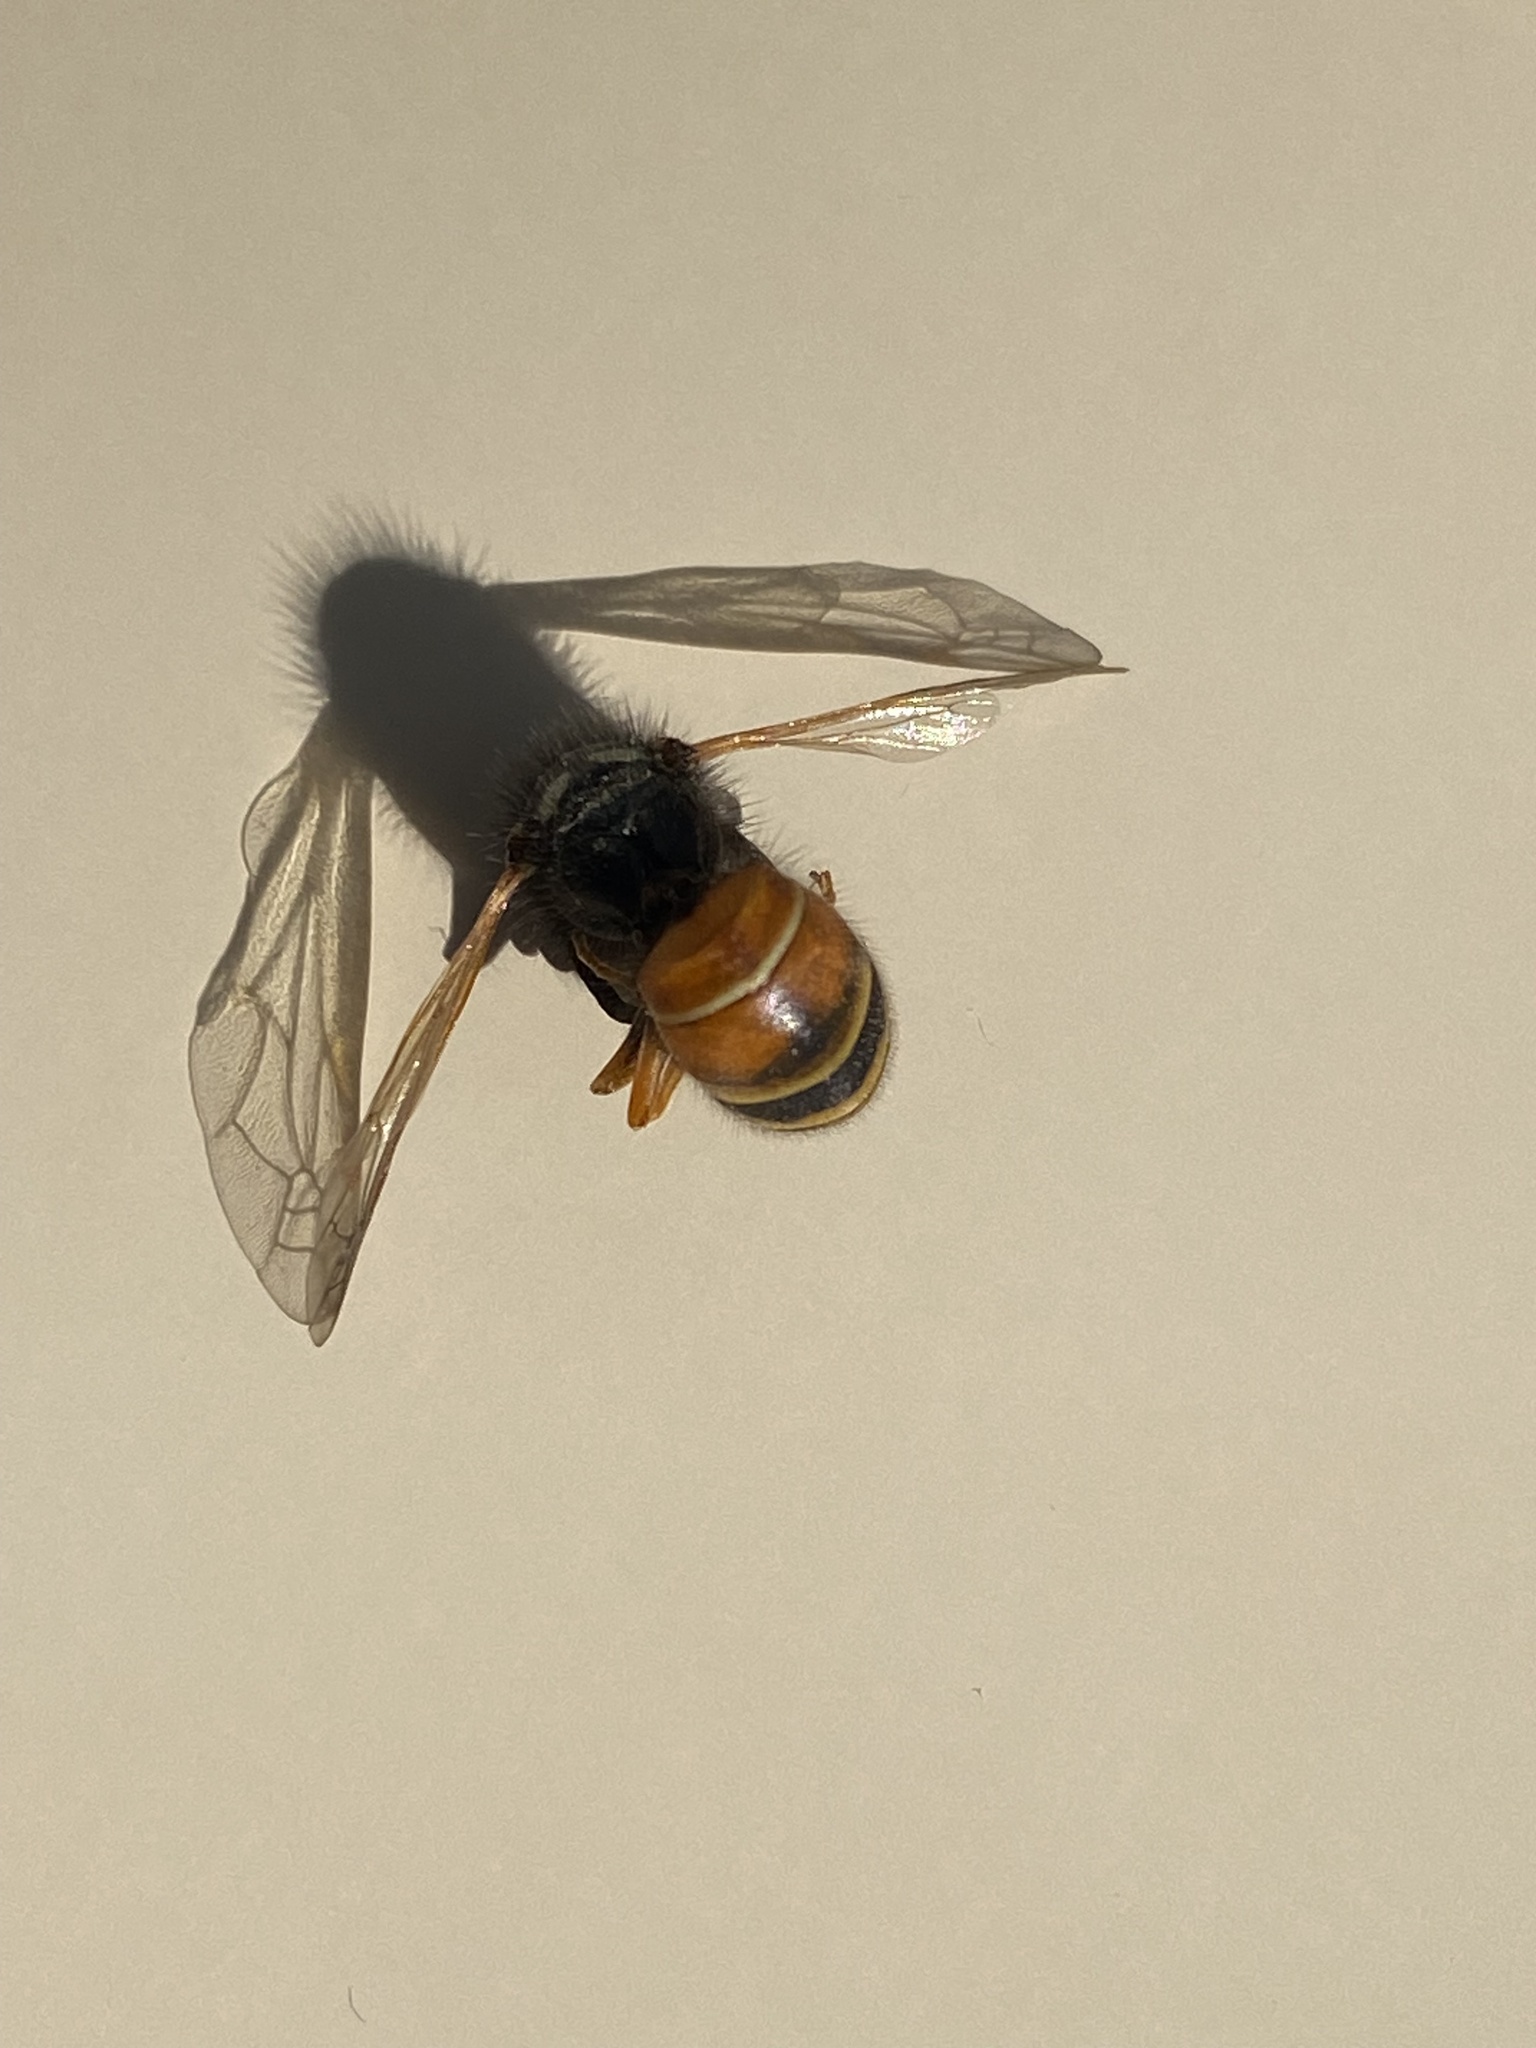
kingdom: Animalia
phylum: Arthropoda
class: Insecta
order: Hymenoptera
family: Vespidae
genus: Vespula
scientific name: Vespula rufa
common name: Red wasp
